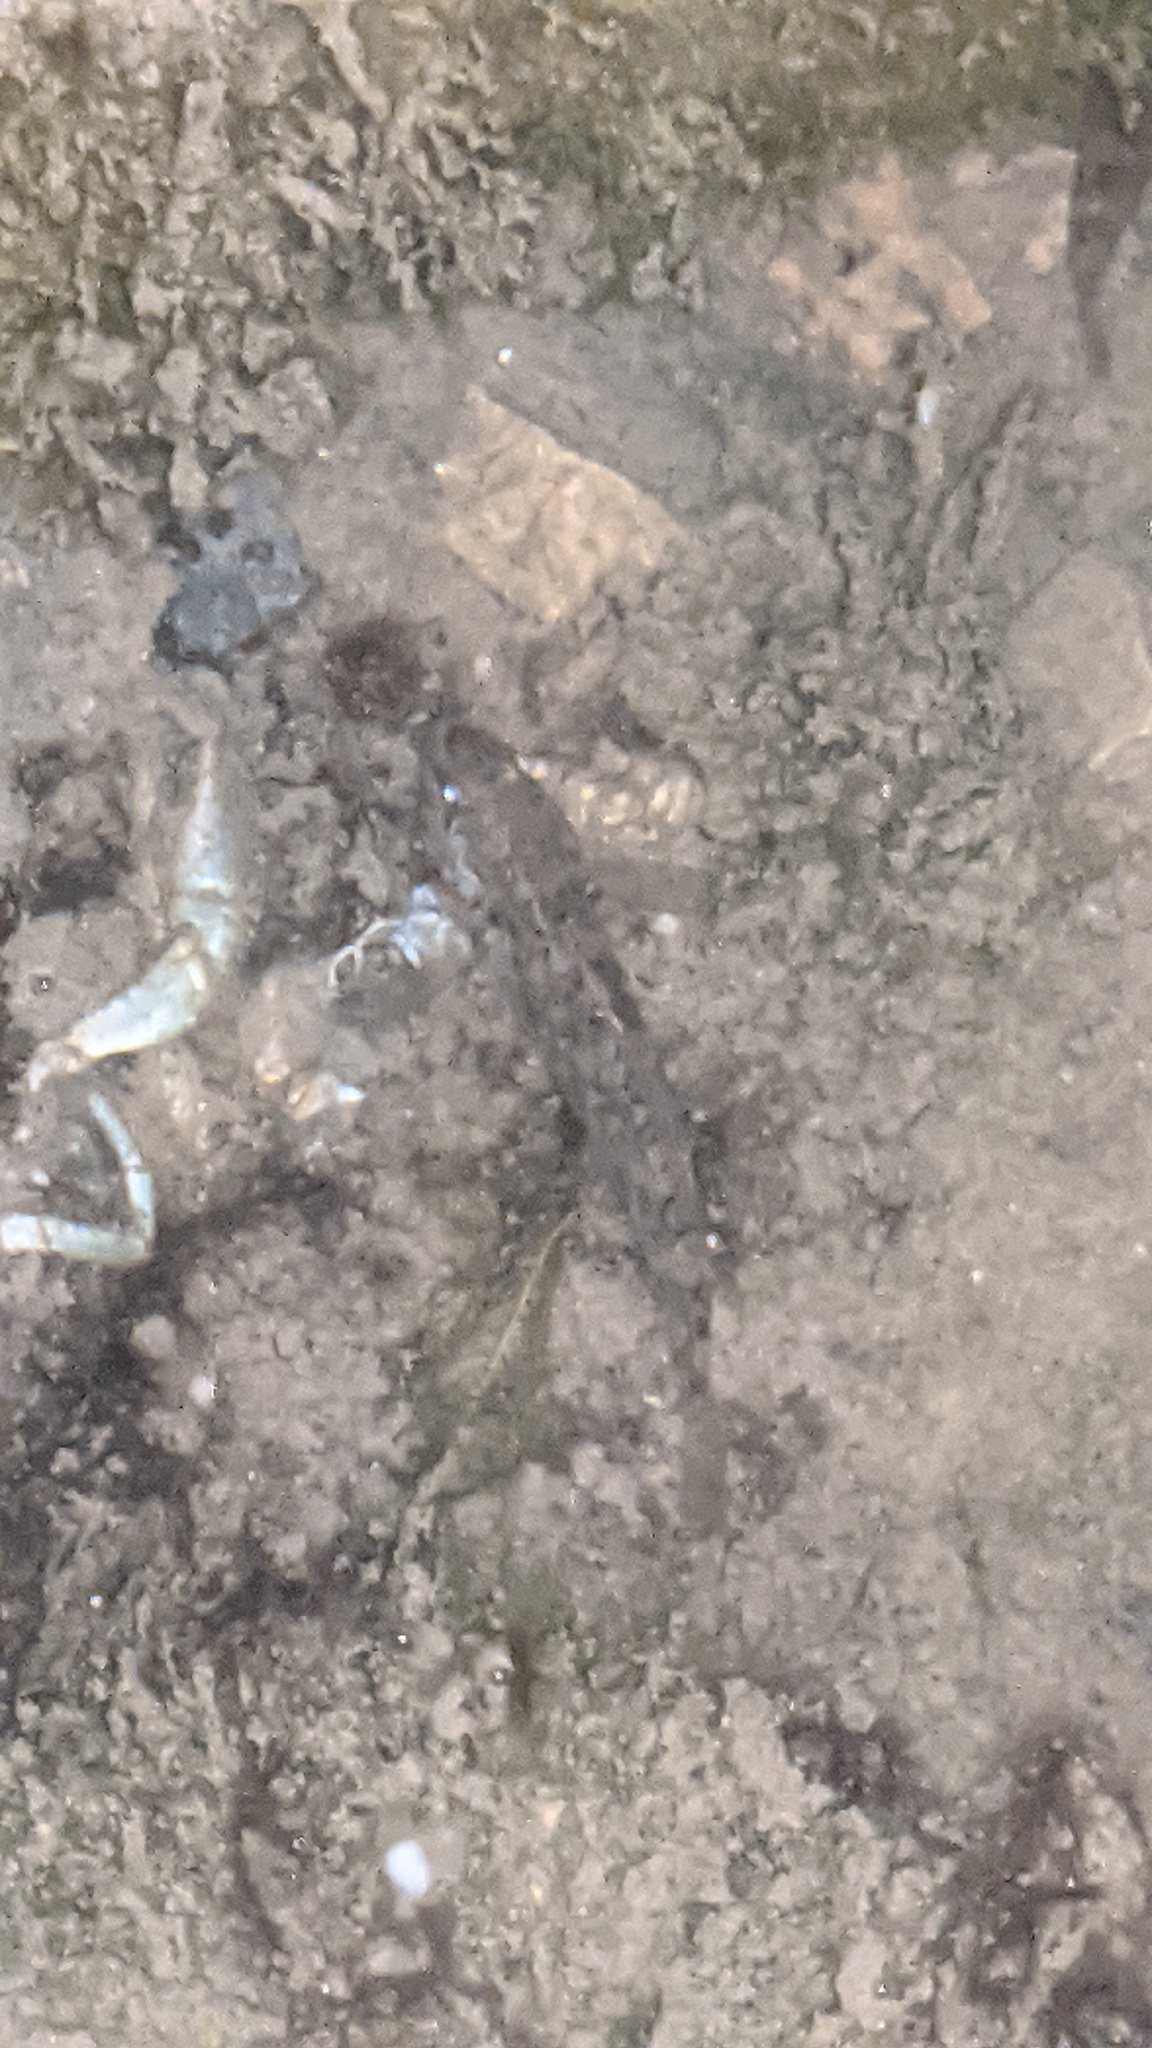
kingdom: Animalia
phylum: Chordata
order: Perciformes
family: Gobiidae
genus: Neogobius
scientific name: Neogobius melanostomus
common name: Round goby
